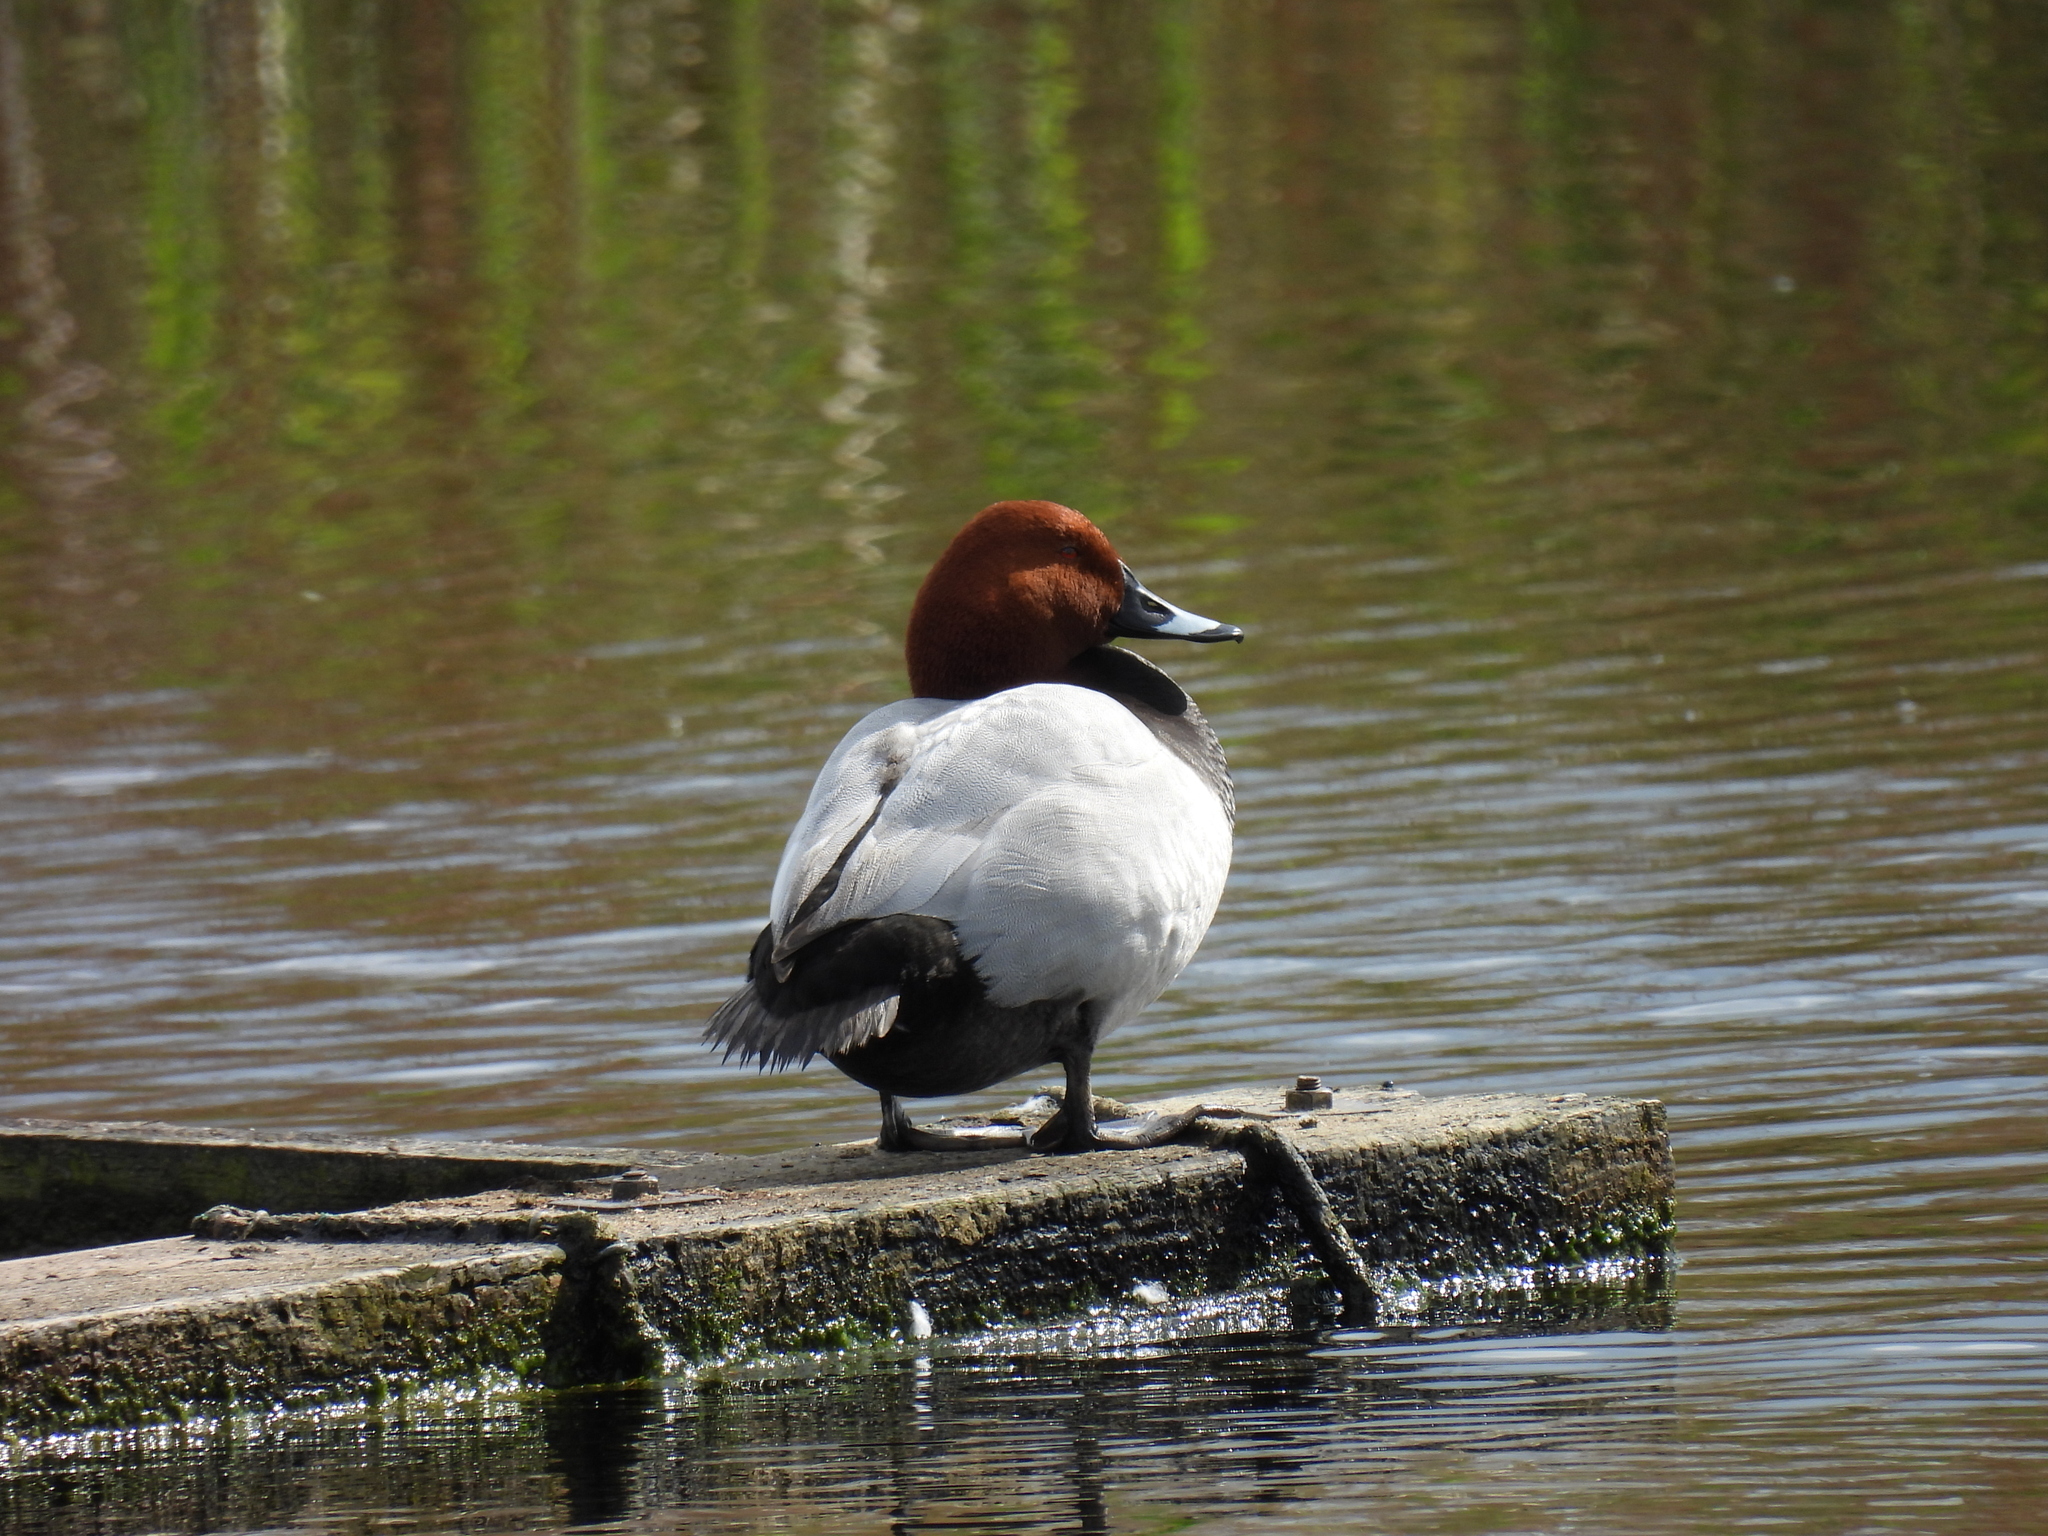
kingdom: Animalia
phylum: Chordata
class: Aves
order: Anseriformes
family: Anatidae
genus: Aythya
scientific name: Aythya ferina
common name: Common pochard
